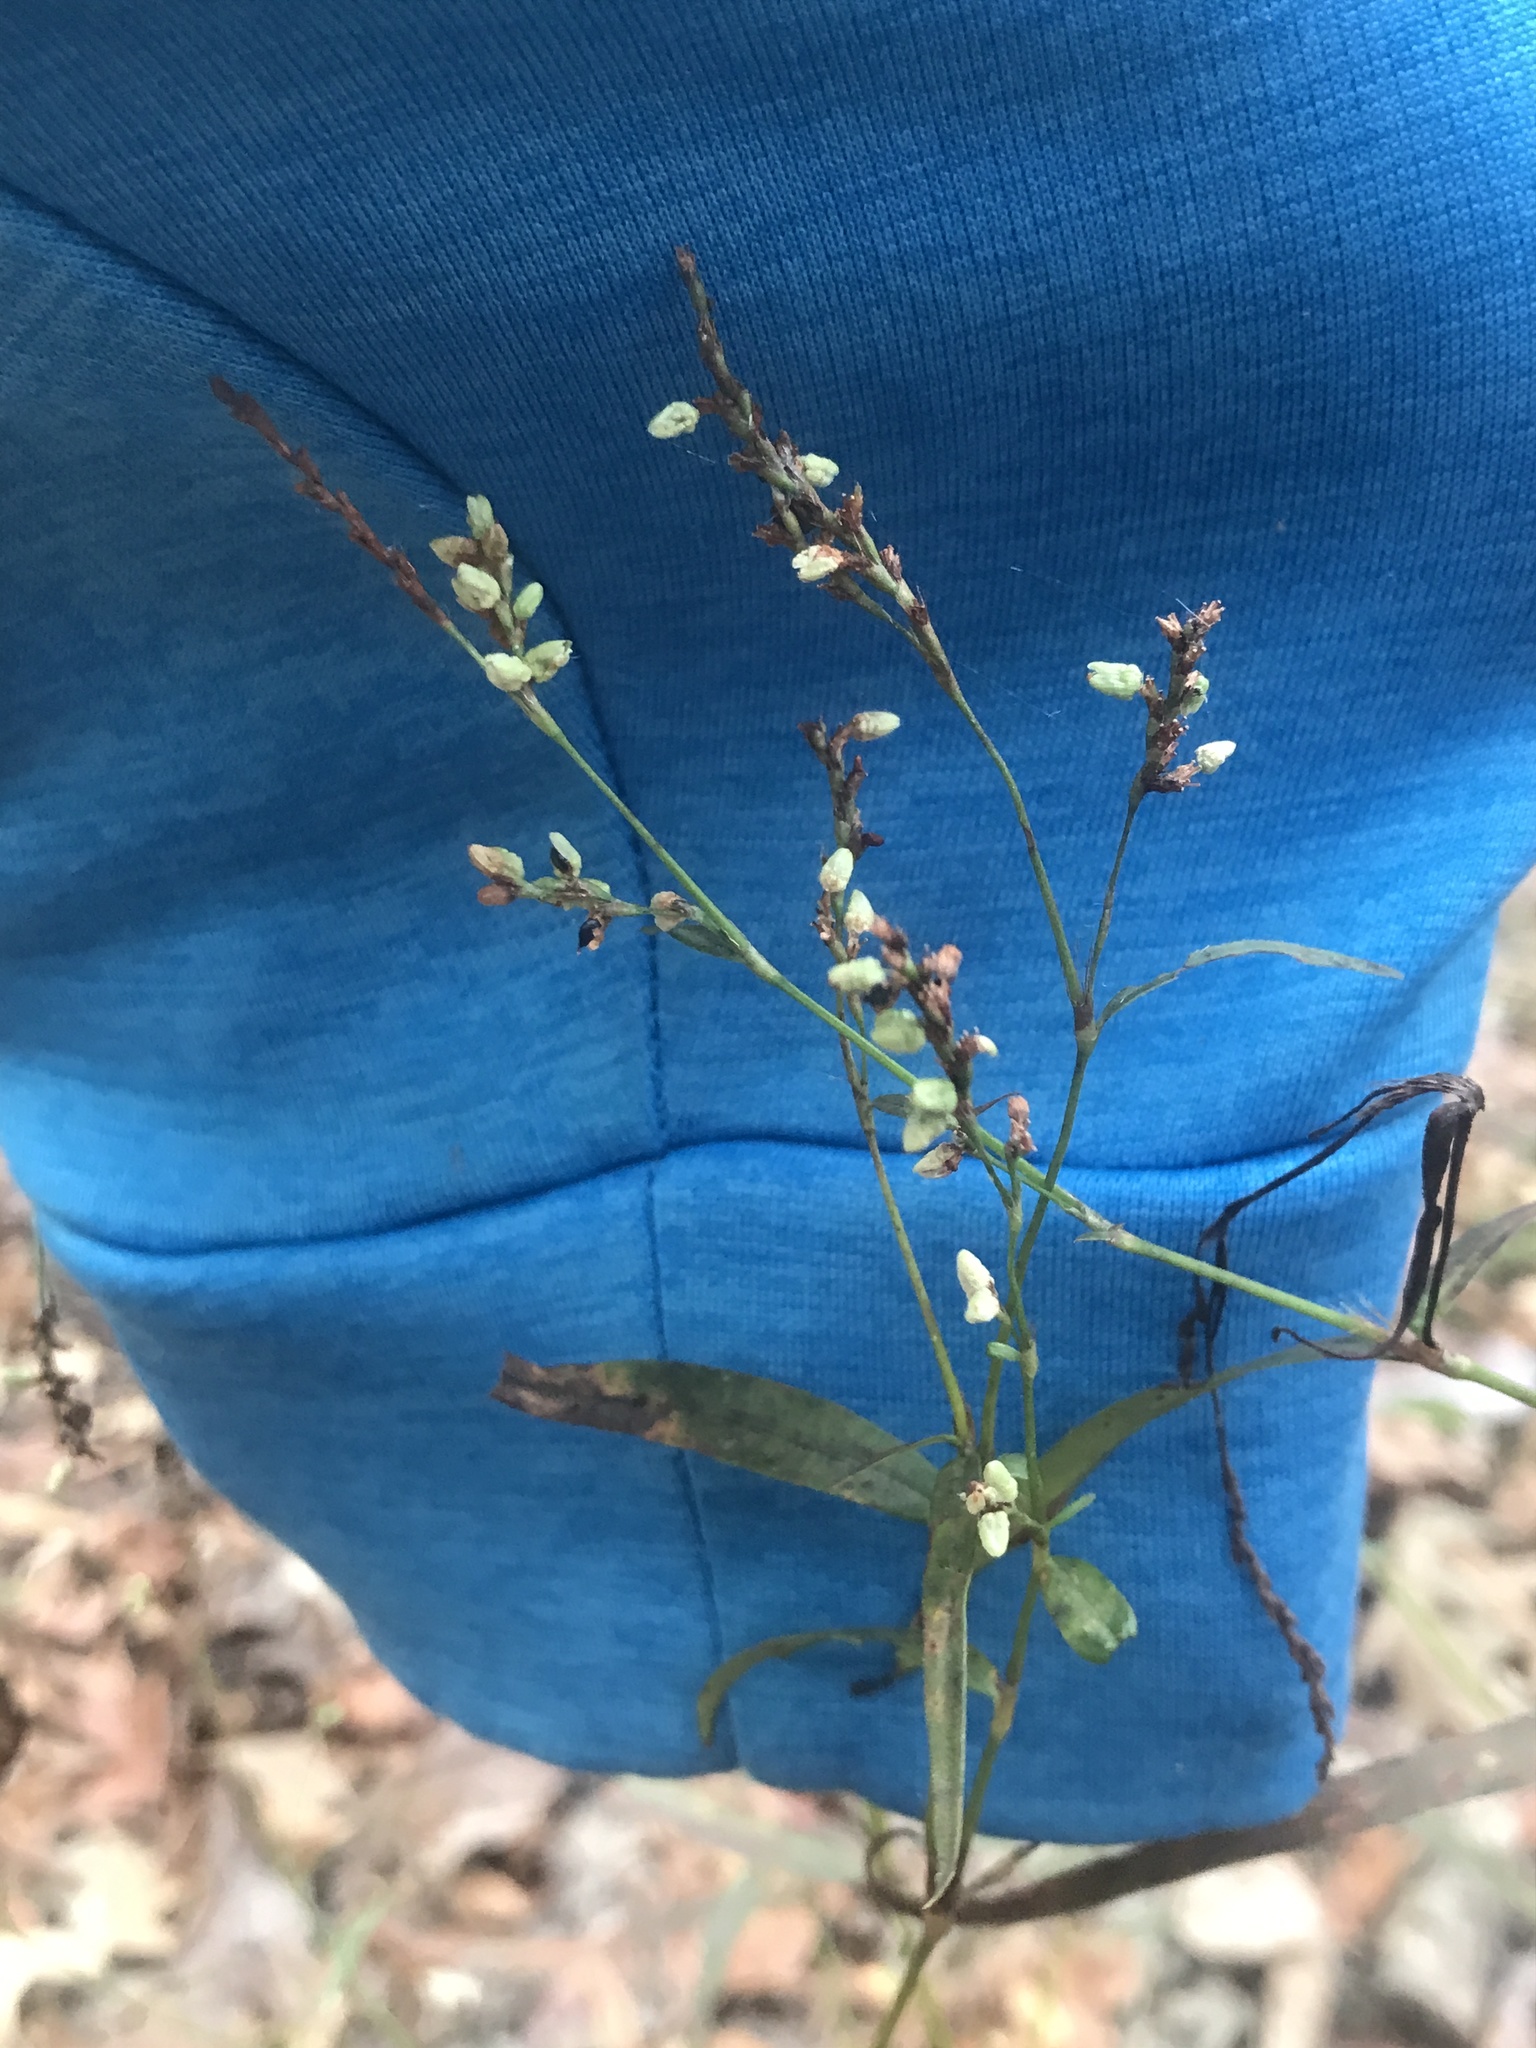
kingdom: Plantae
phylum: Tracheophyta
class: Magnoliopsida
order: Caryophyllales
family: Polygonaceae
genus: Persicaria
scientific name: Persicaria punctata
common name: Dotted smartweed
